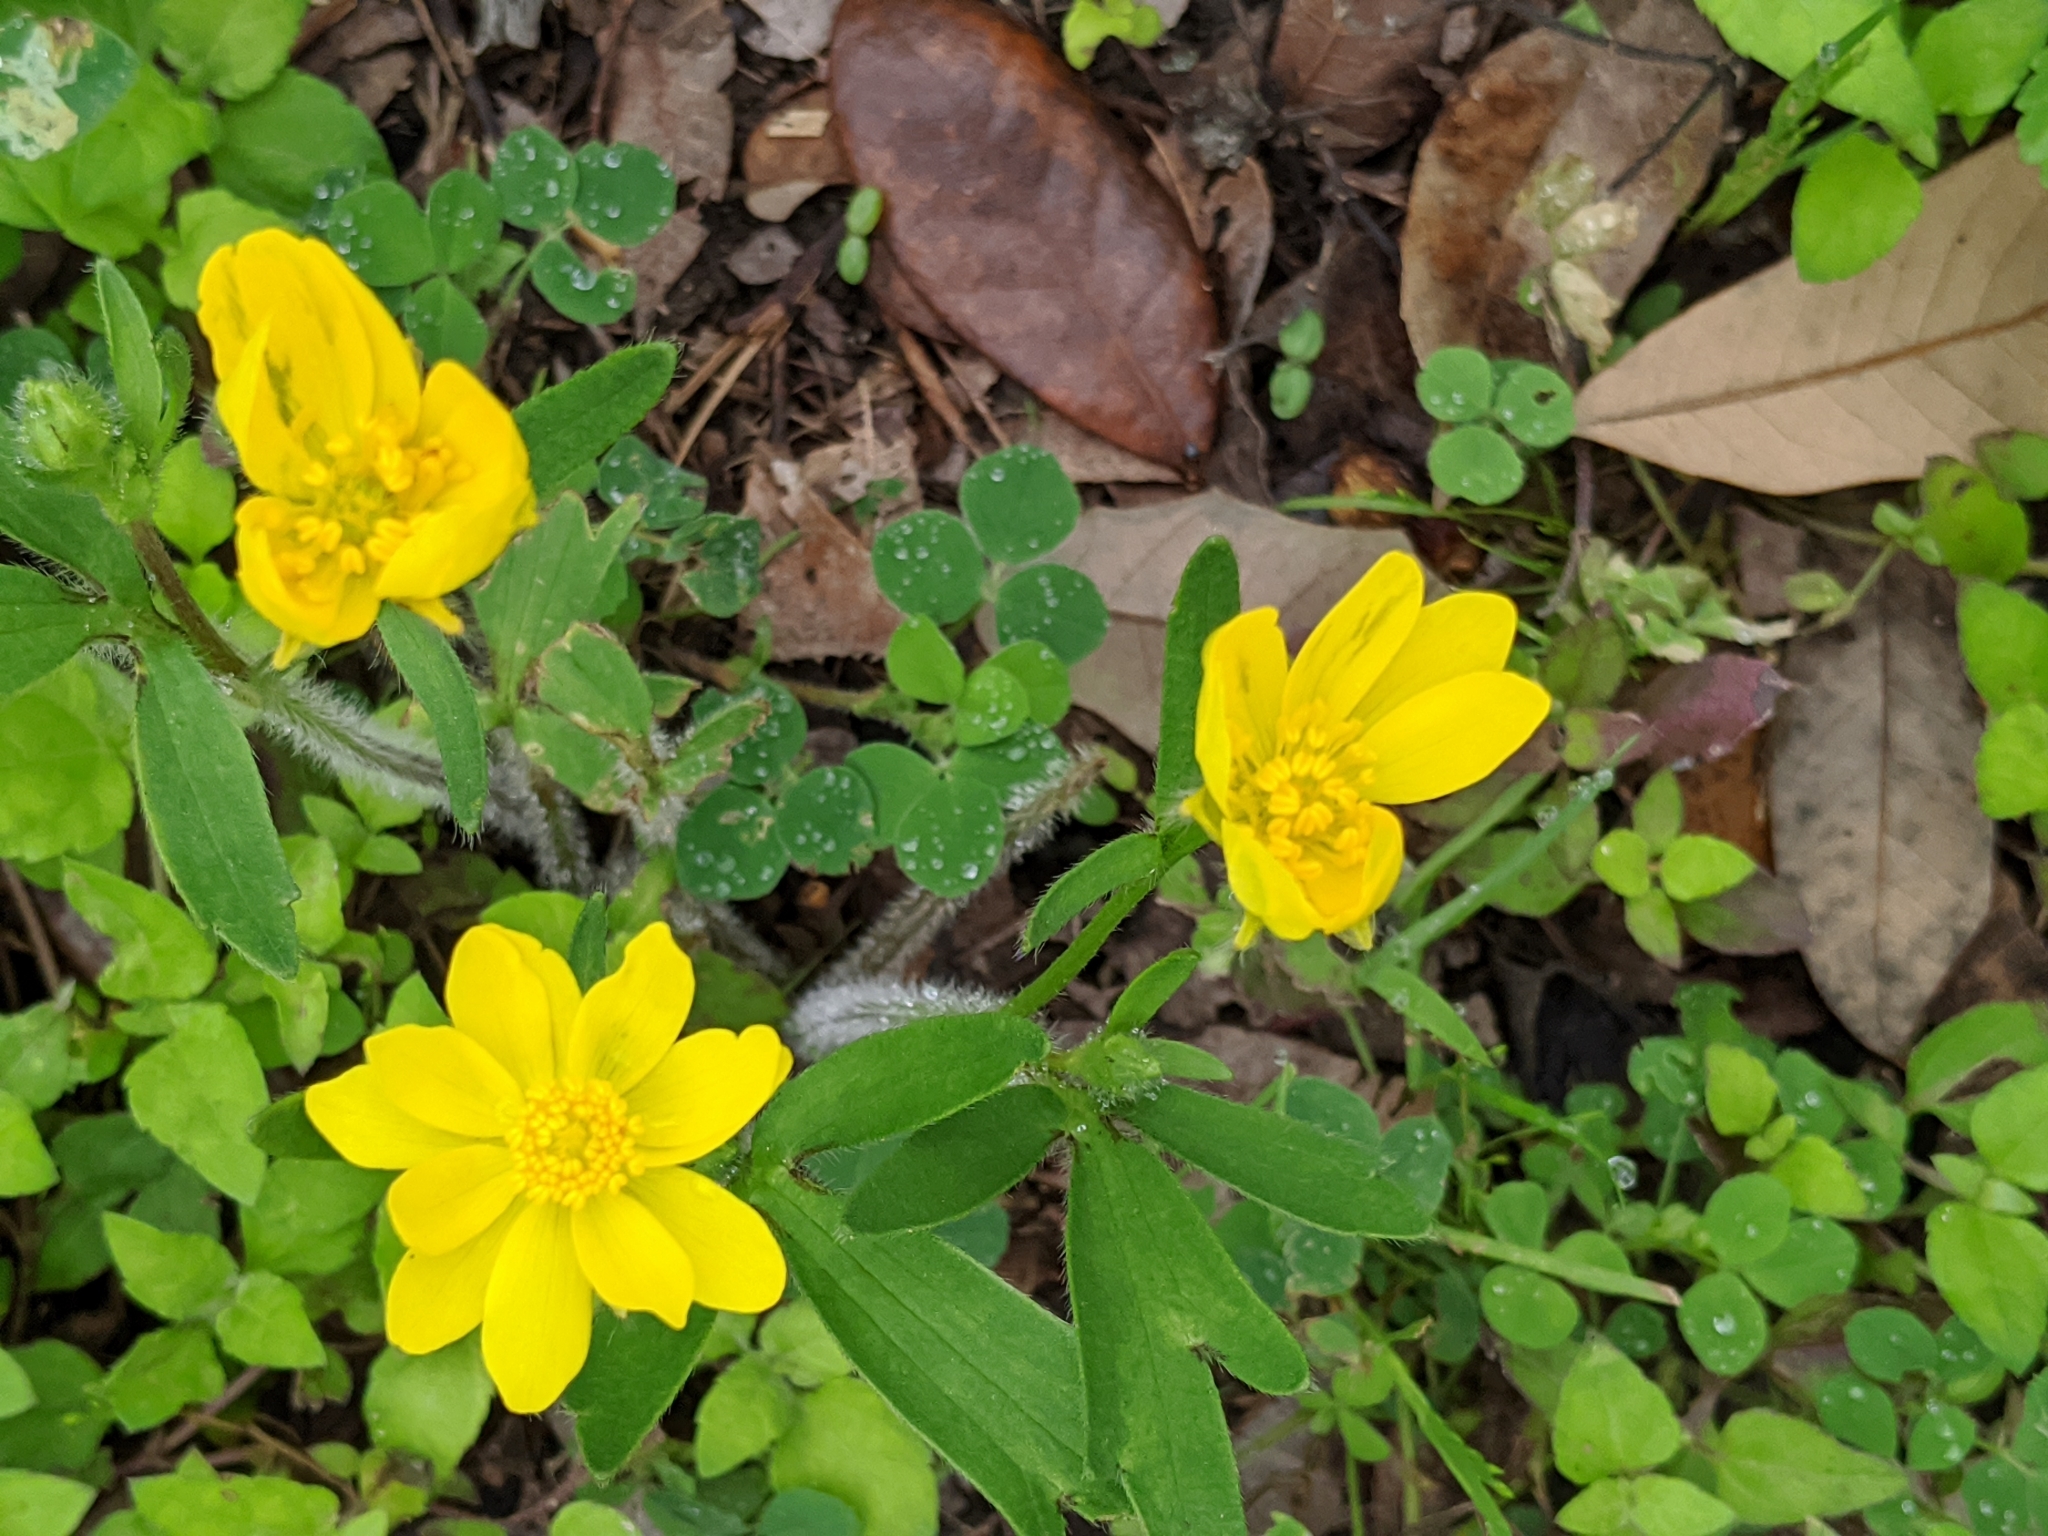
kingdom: Plantae
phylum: Tracheophyta
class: Magnoliopsida
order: Ranunculales
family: Ranunculaceae
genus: Ranunculus
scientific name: Ranunculus macranthus
